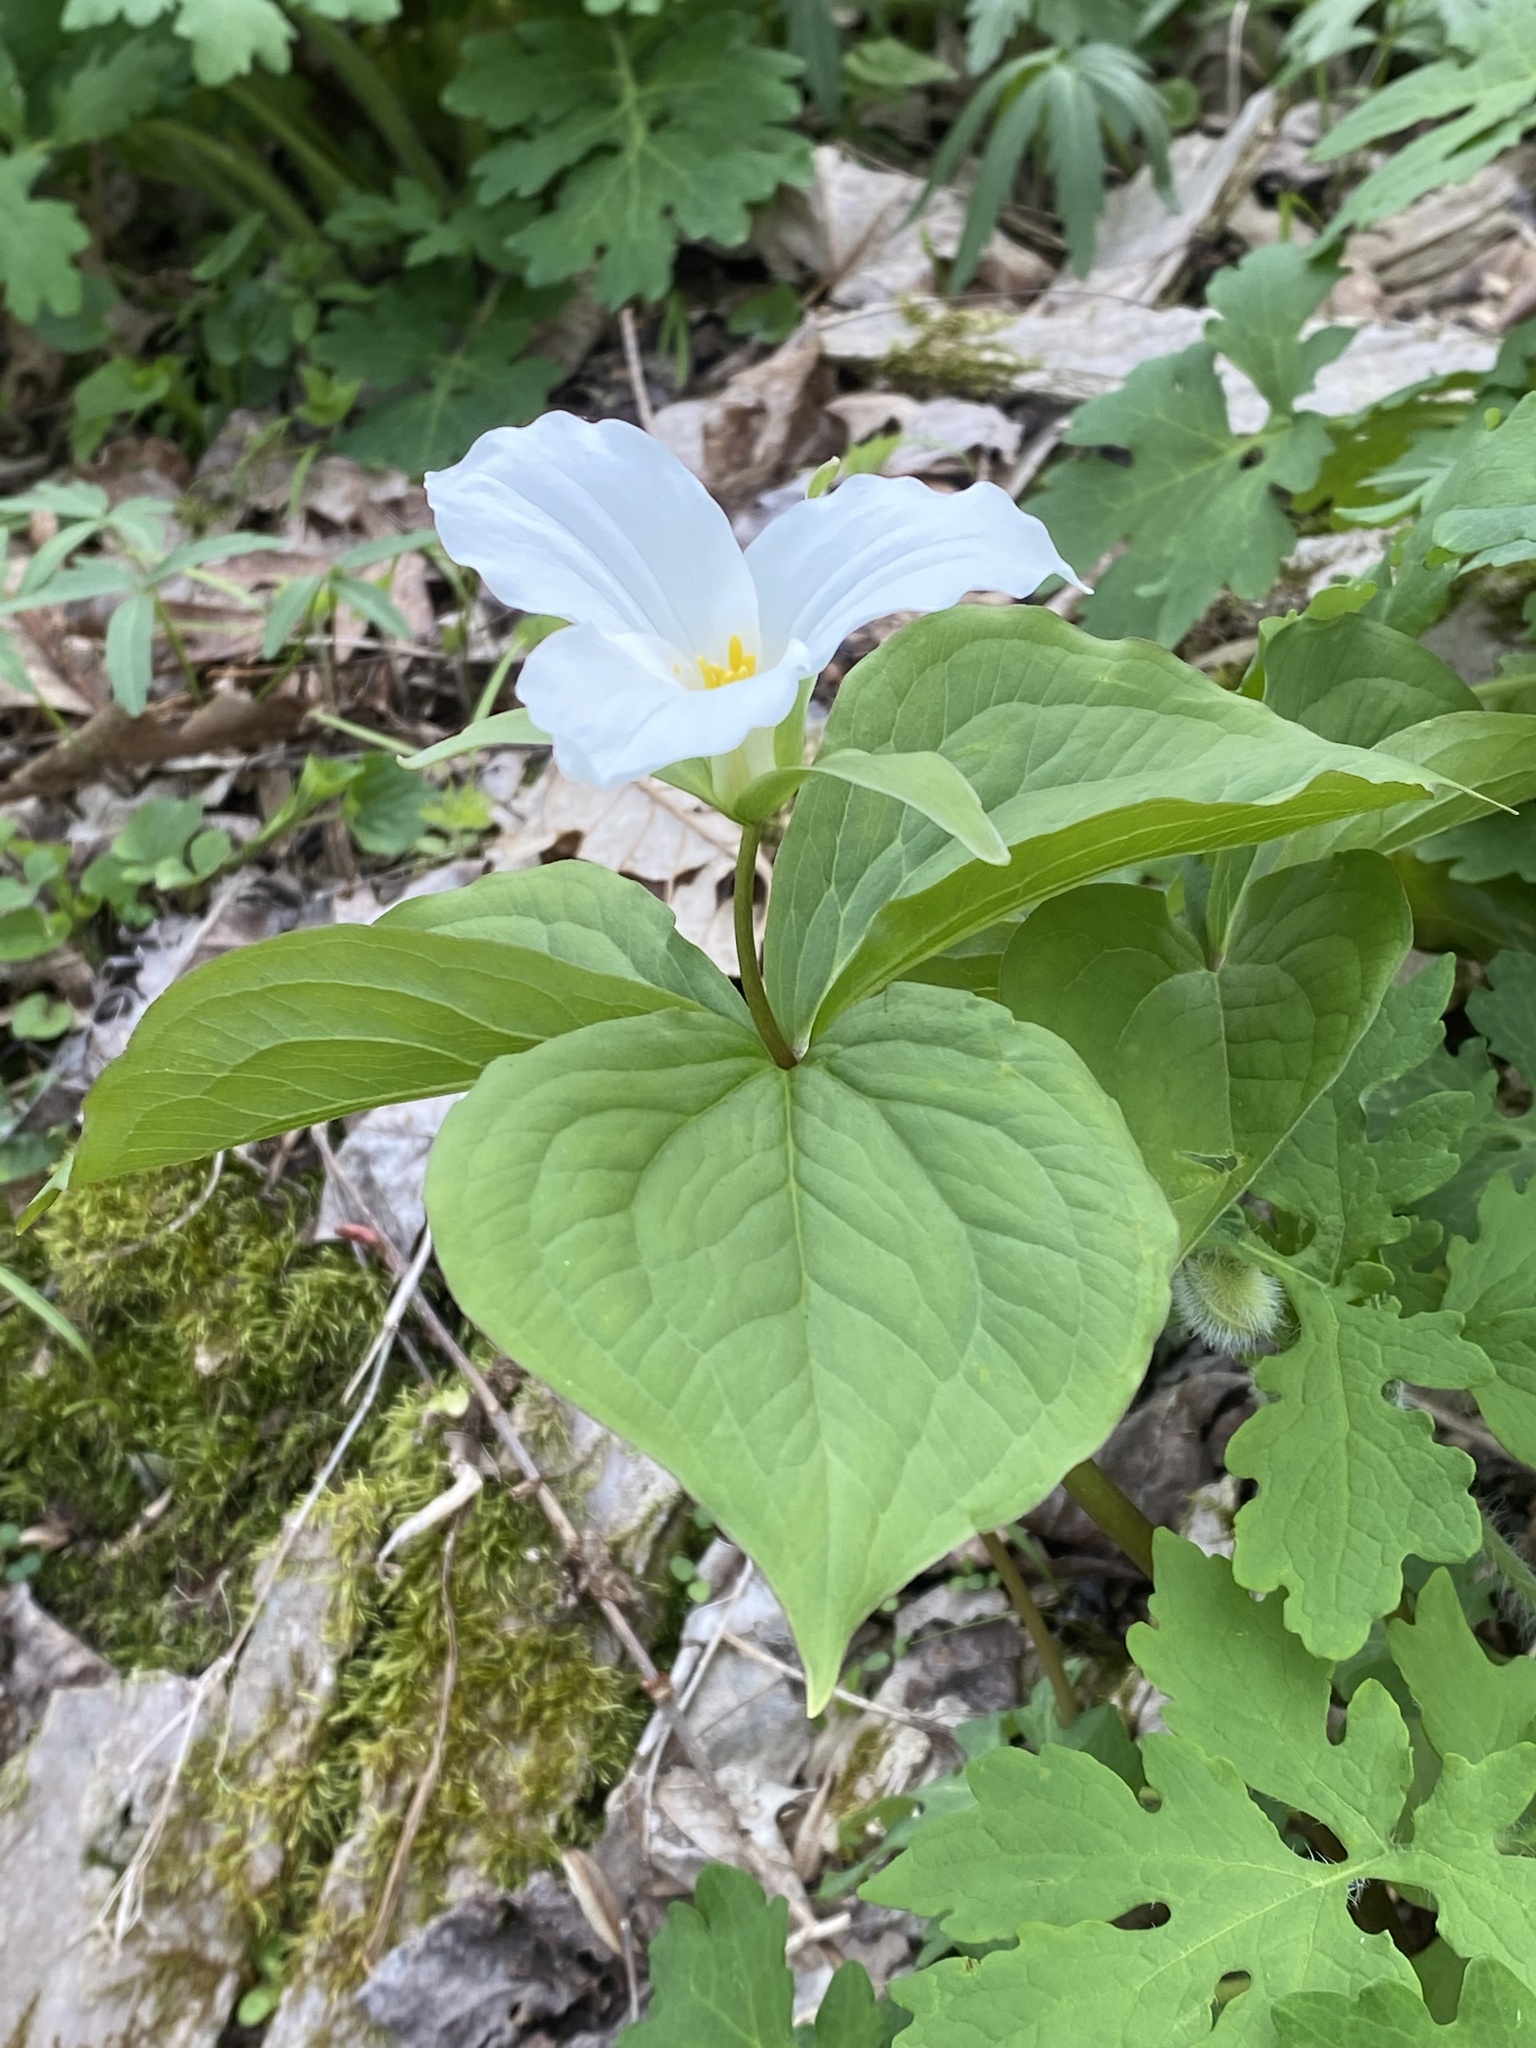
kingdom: Plantae
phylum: Tracheophyta
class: Liliopsida
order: Liliales
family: Melanthiaceae
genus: Trillium
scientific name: Trillium grandiflorum
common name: Great white trillium
